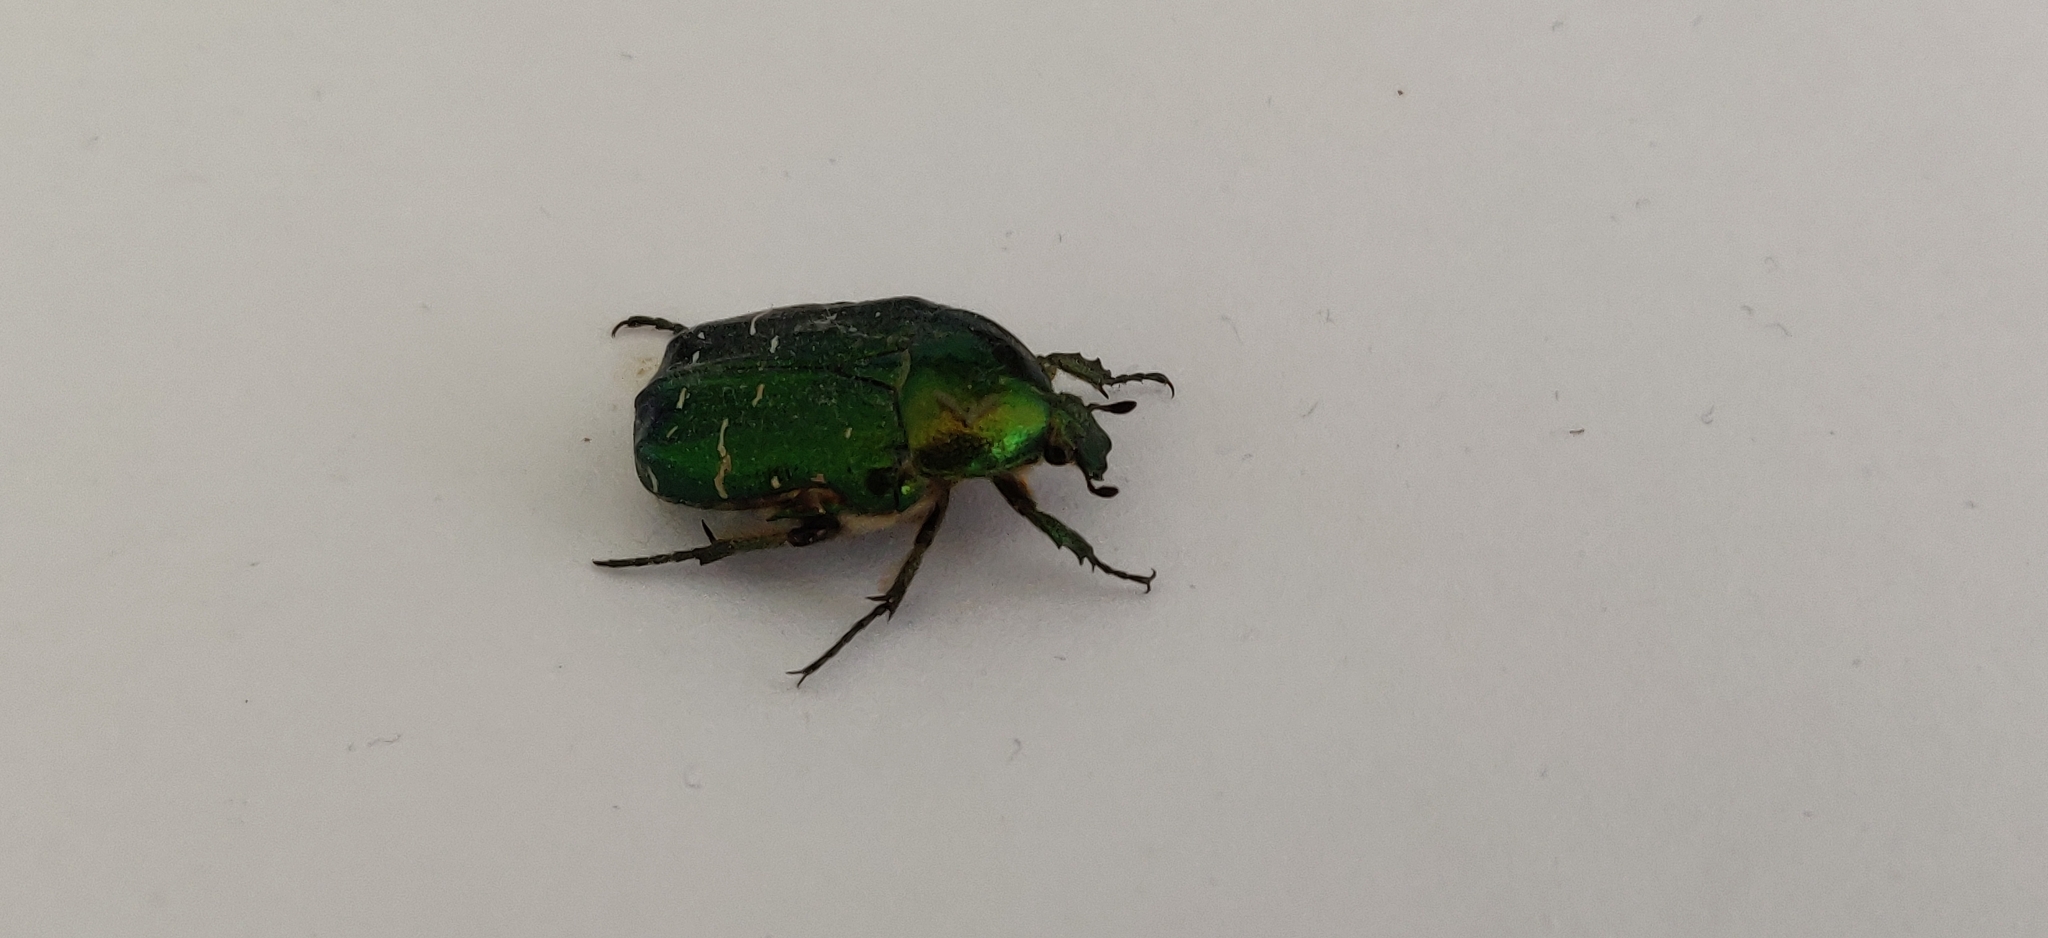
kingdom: Animalia
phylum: Arthropoda
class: Insecta
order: Coleoptera
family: Scarabaeidae
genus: Cetonia
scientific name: Cetonia aurata
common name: Rose chafer
